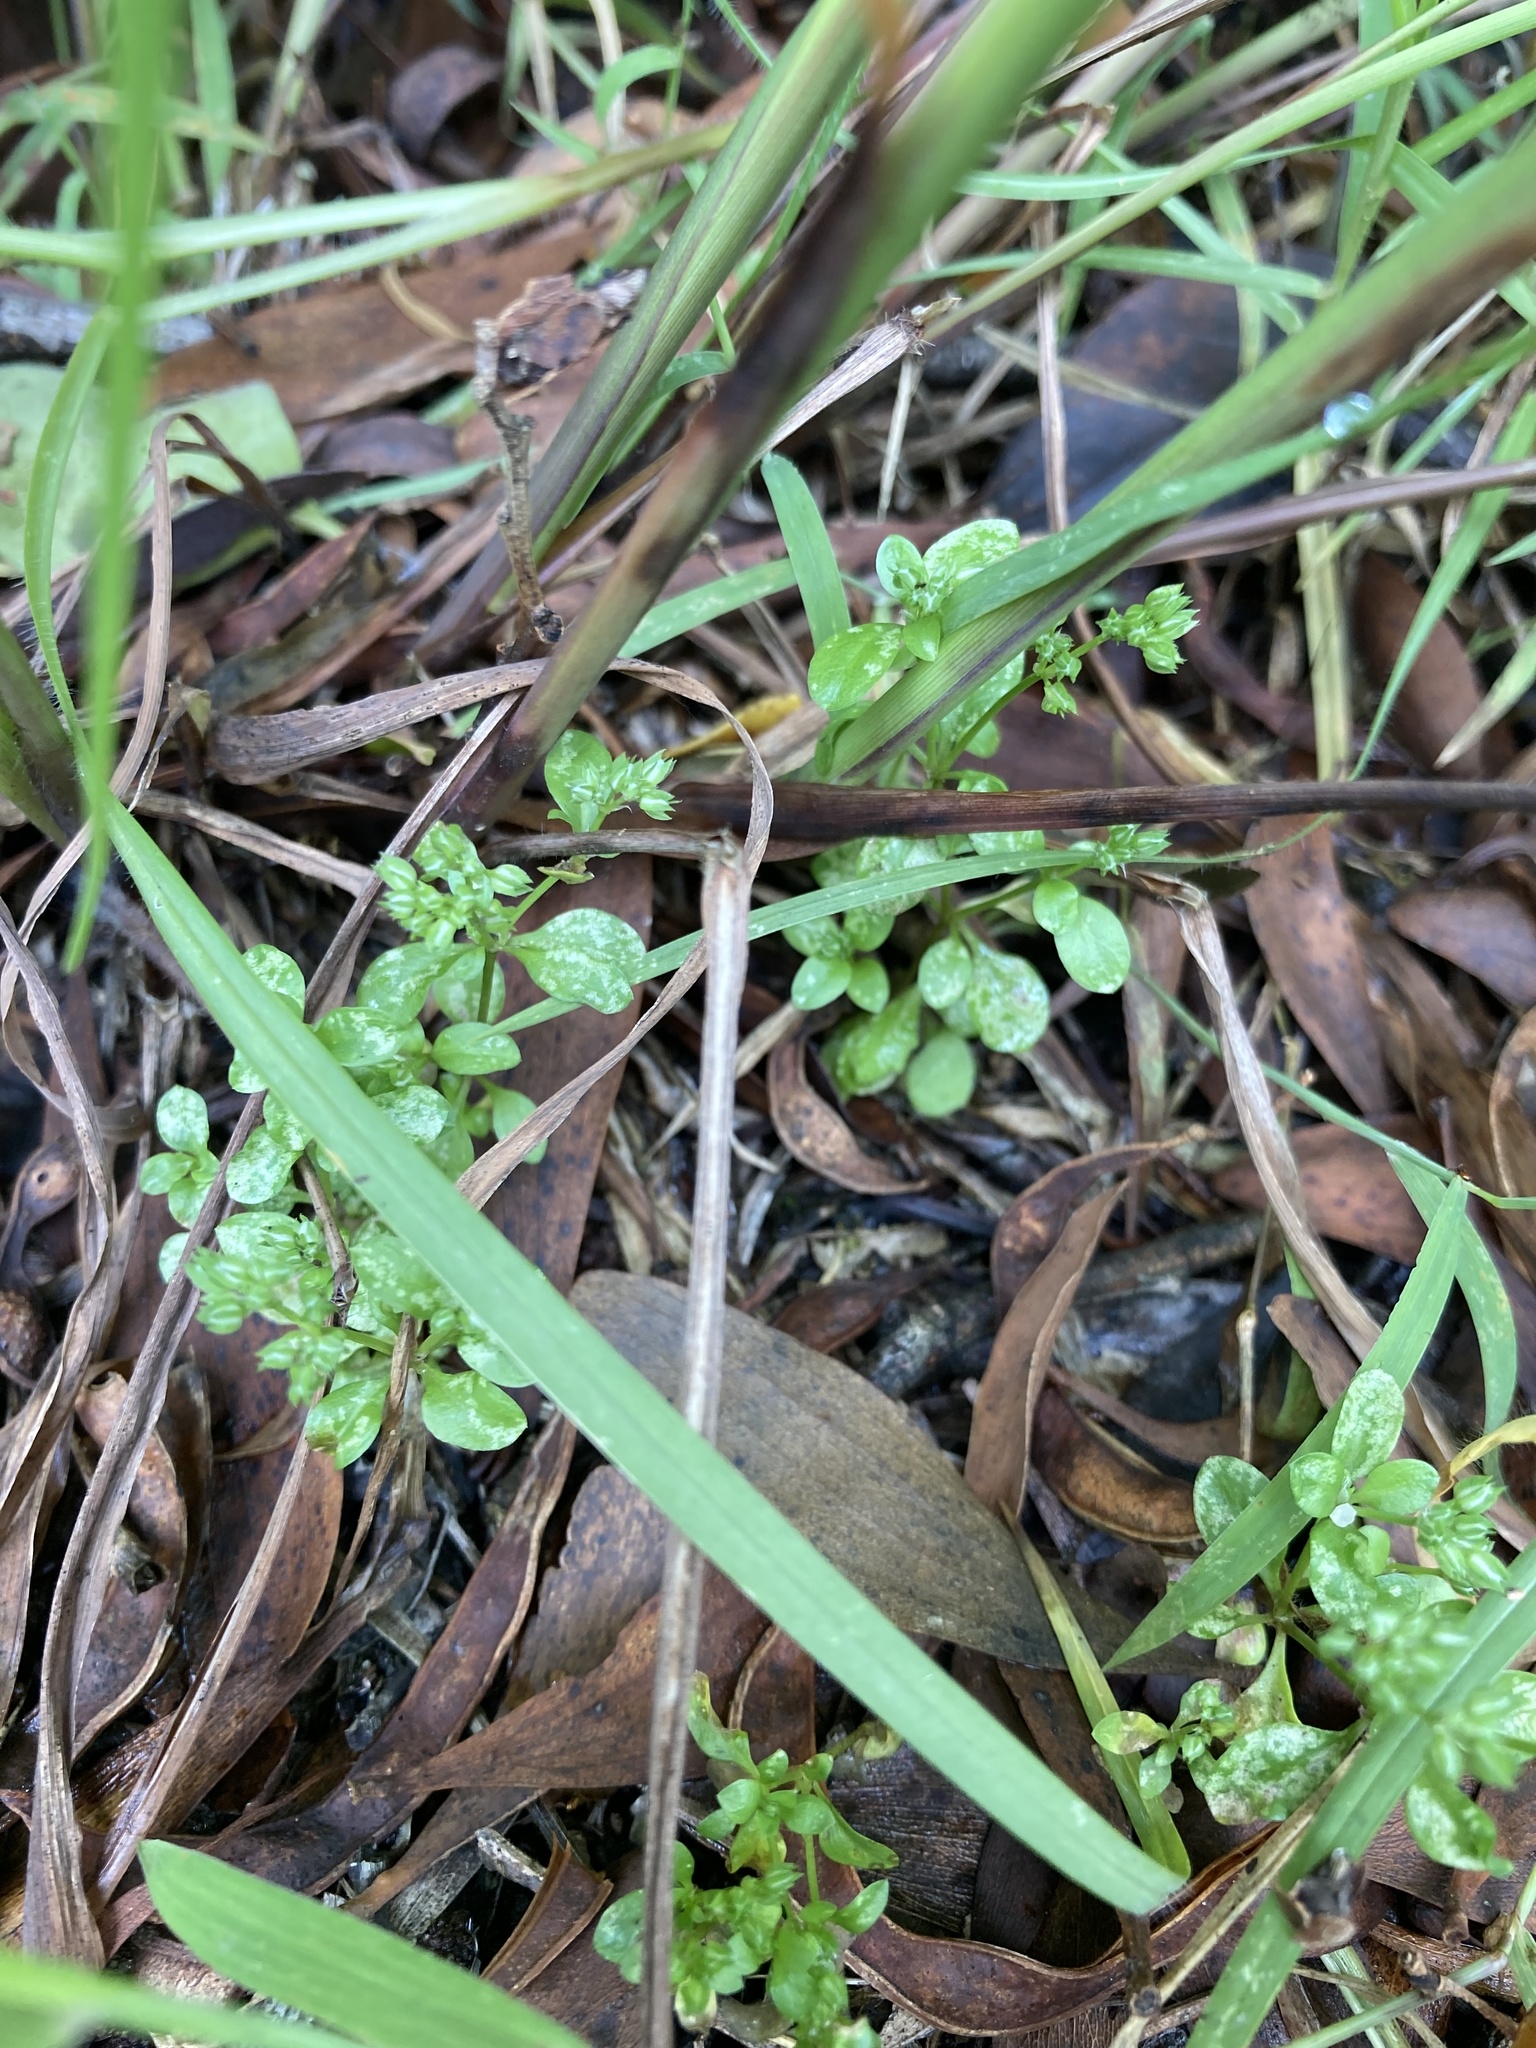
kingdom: Plantae
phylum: Tracheophyta
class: Magnoliopsida
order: Caryophyllales
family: Caryophyllaceae
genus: Polycarpon
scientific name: Polycarpon tetraphyllum
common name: Four-leaved all-seed
